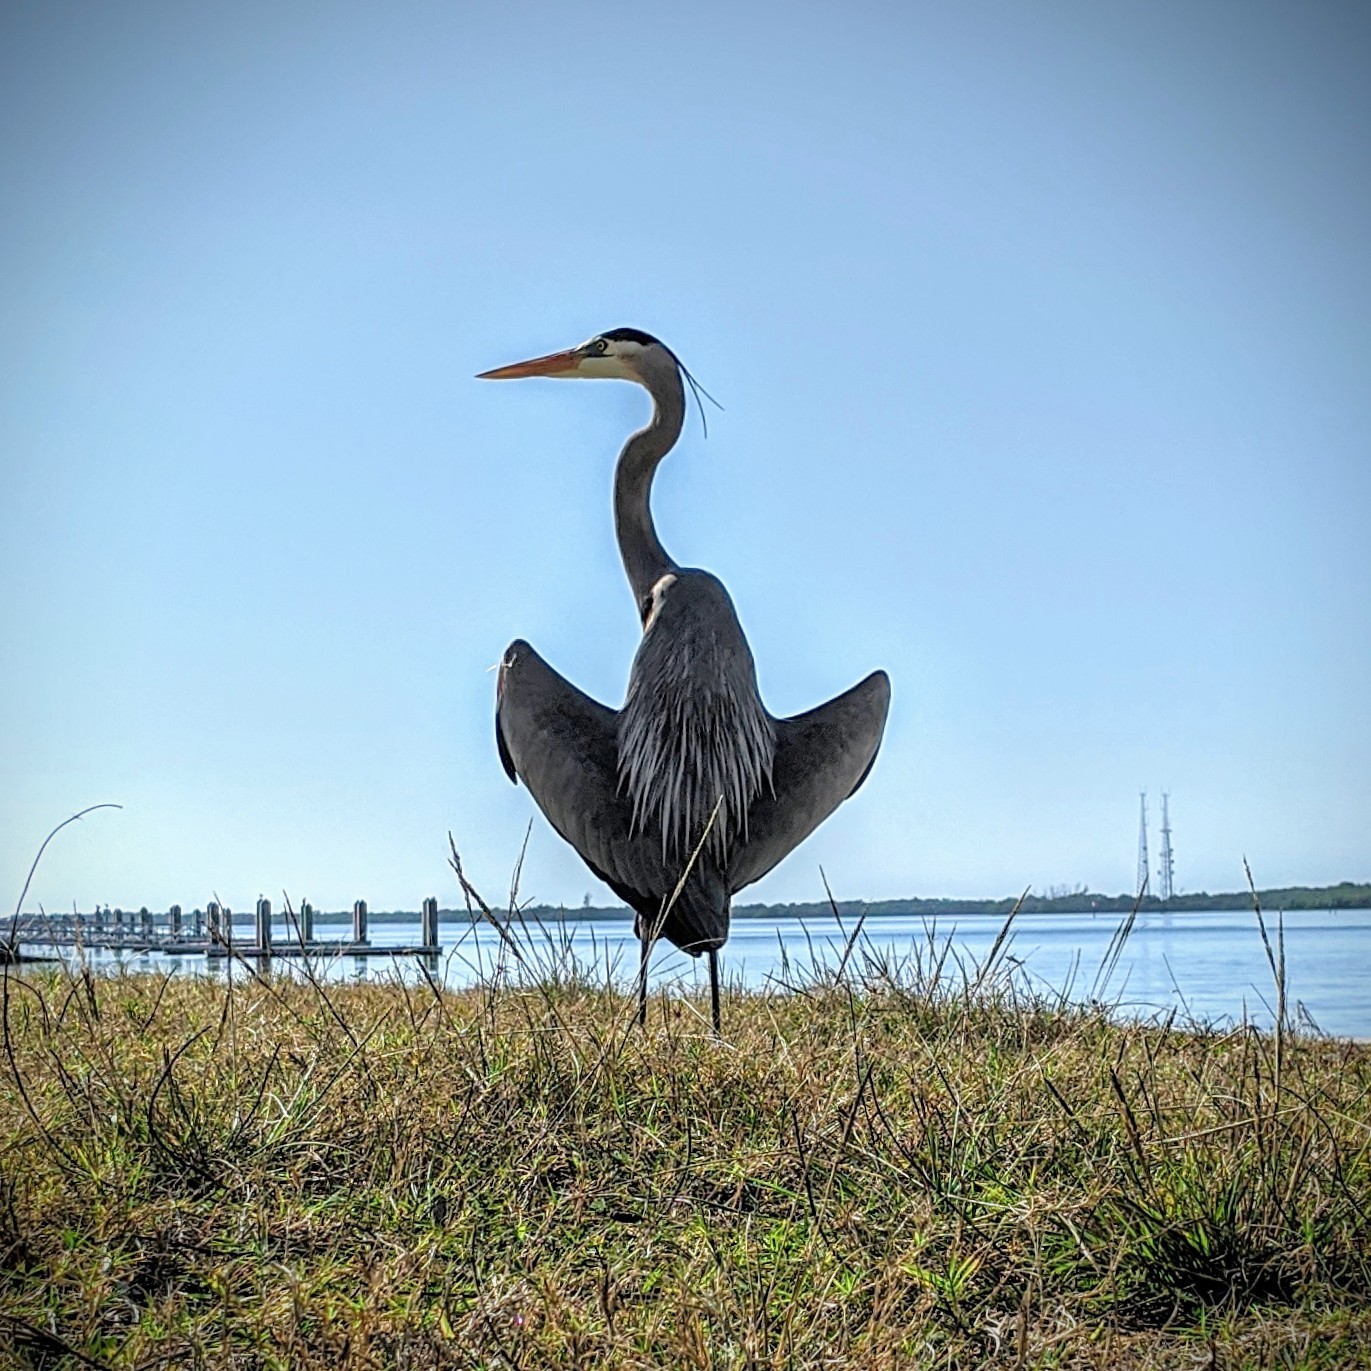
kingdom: Animalia
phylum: Chordata
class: Aves
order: Pelecaniformes
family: Ardeidae
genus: Ardea
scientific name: Ardea herodias
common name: Great blue heron
